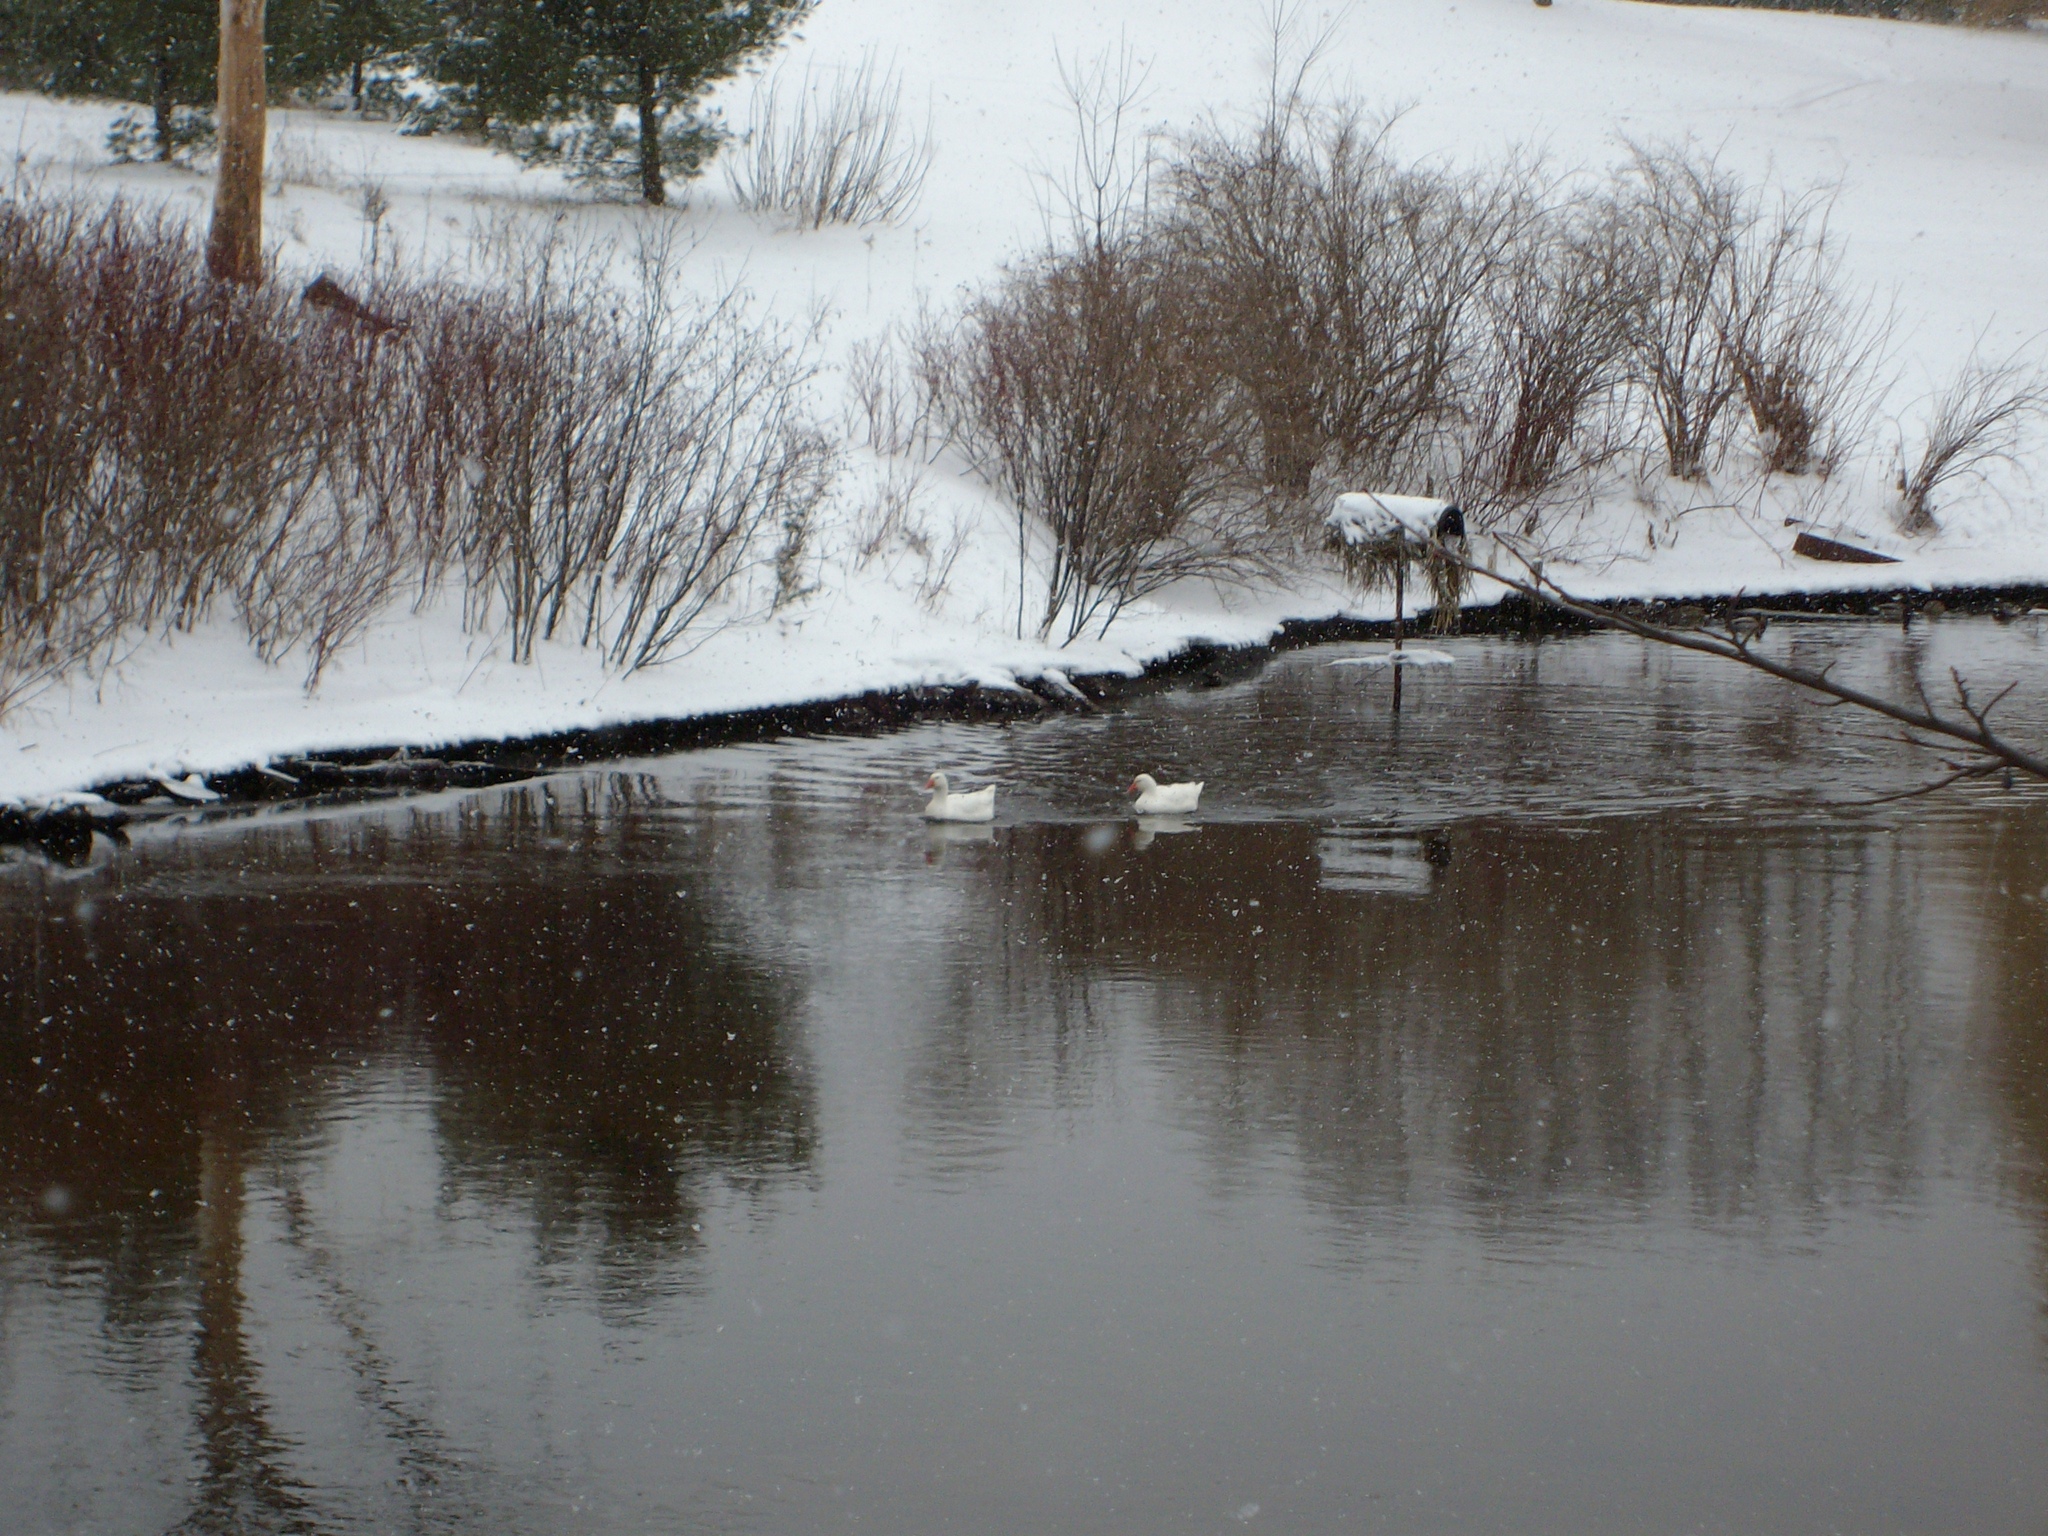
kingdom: Animalia
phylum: Chordata
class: Aves
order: Anseriformes
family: Anatidae
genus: Anser
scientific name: Anser anser
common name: Greylag goose
